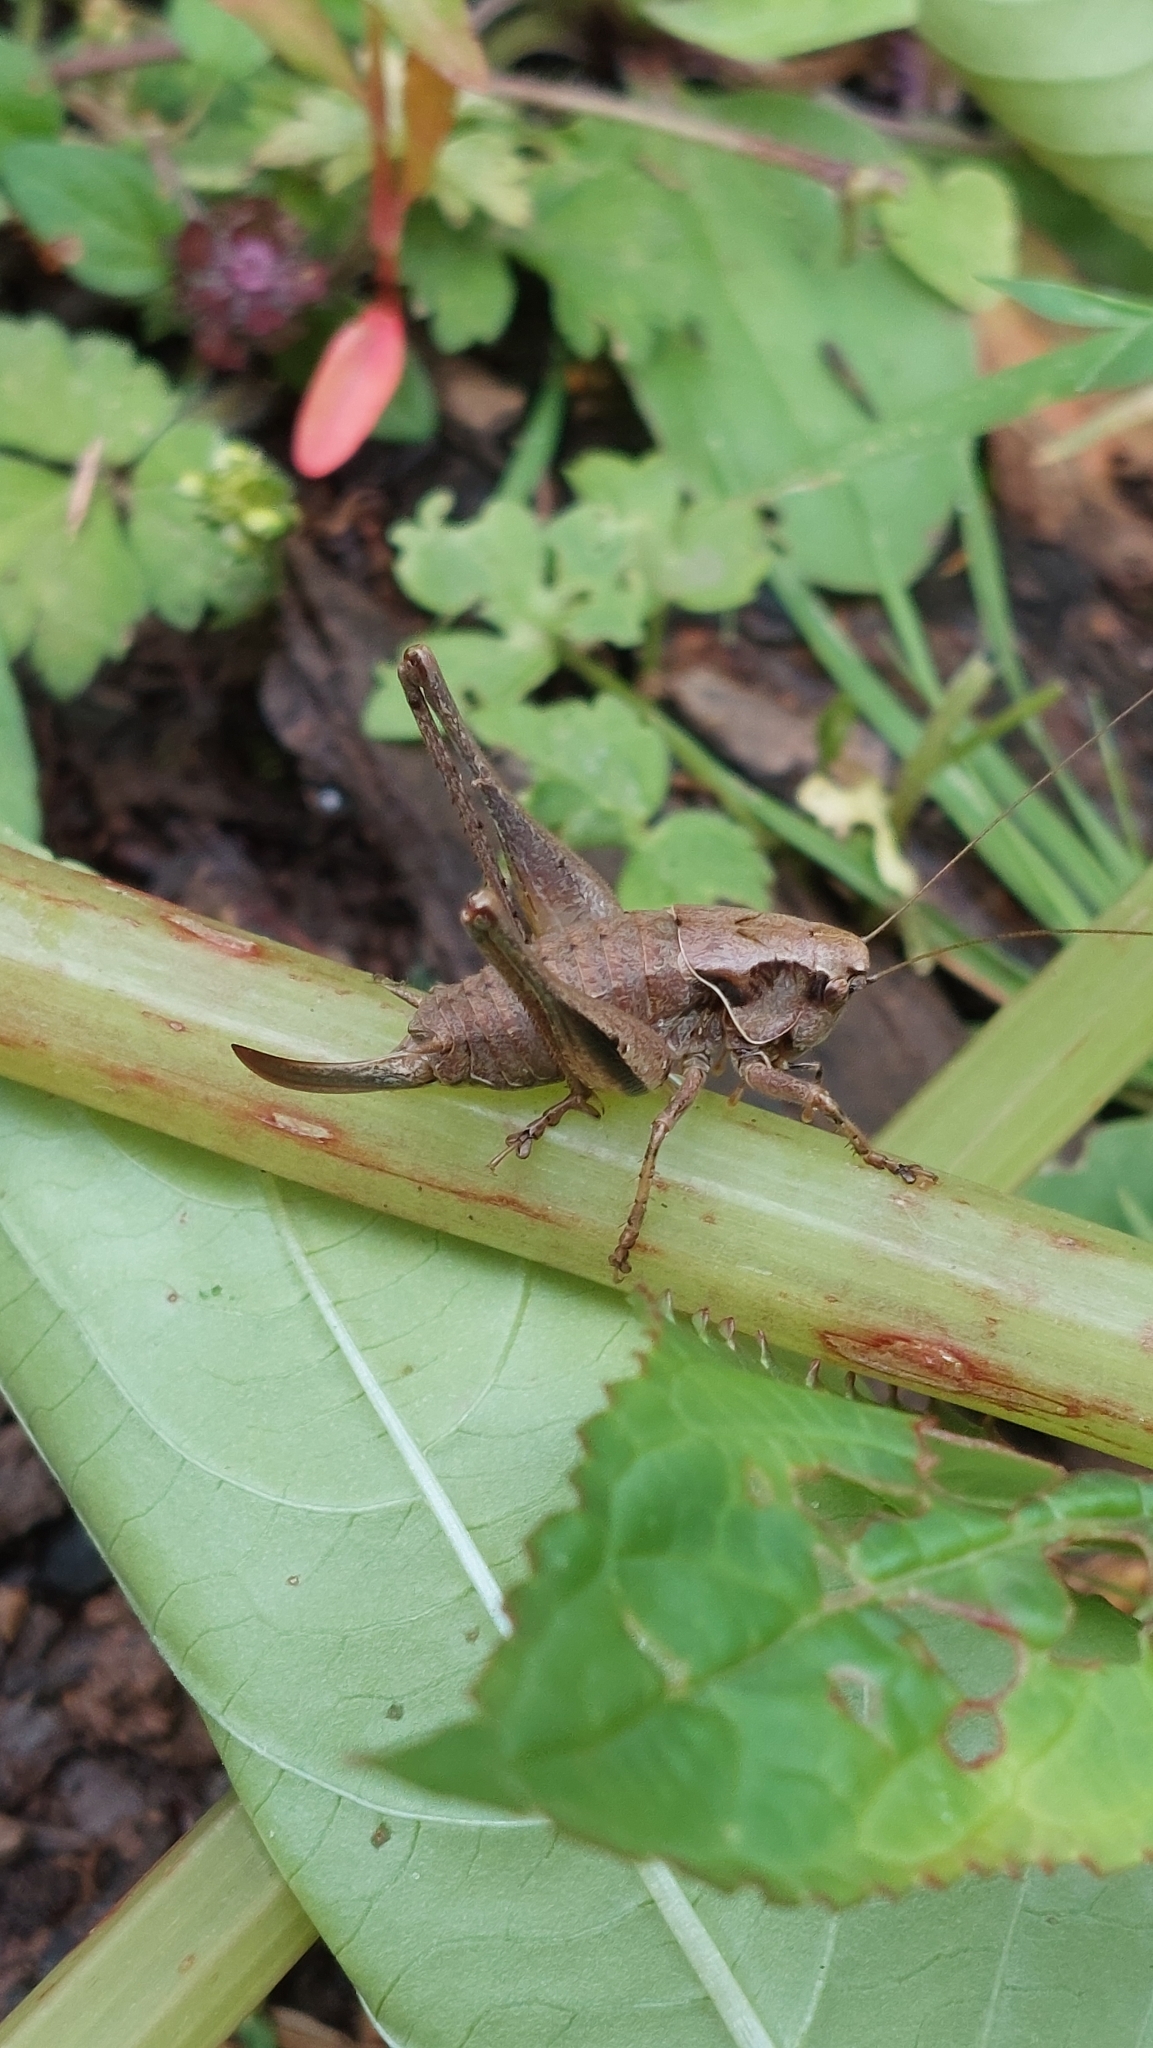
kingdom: Animalia
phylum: Arthropoda
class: Insecta
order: Orthoptera
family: Tettigoniidae
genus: Pholidoptera
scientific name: Pholidoptera griseoaptera
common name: Dark bush-cricket
